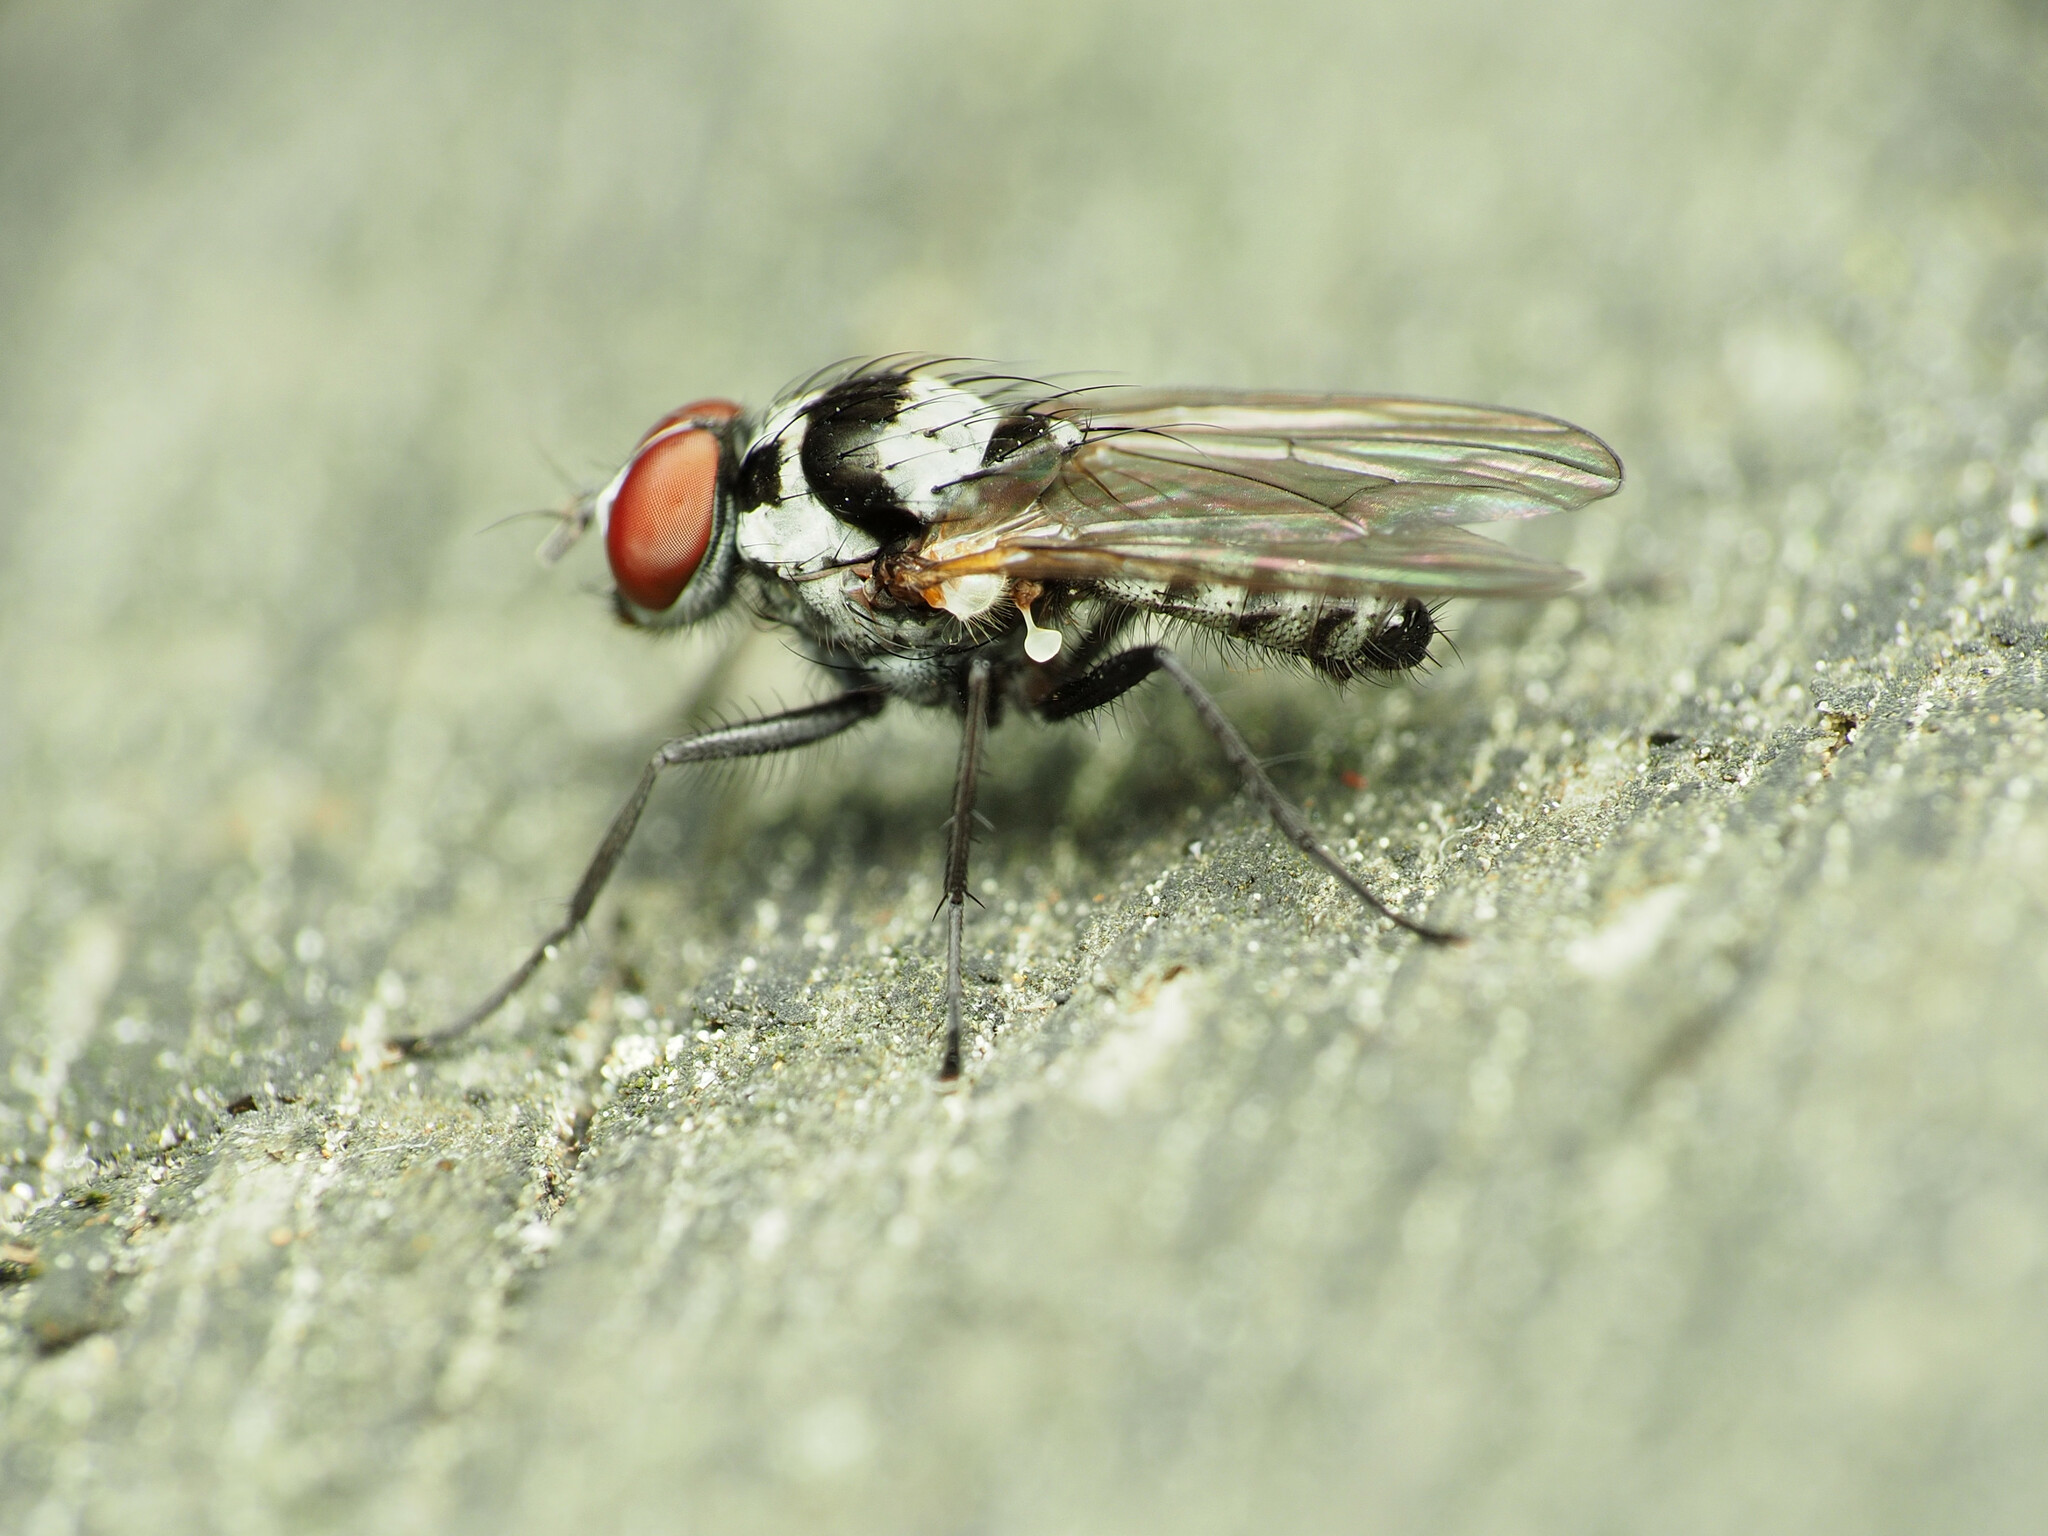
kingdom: Animalia
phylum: Arthropoda
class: Insecta
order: Diptera
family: Anthomyiidae
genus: Anthomyia
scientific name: Anthomyia oculifera
